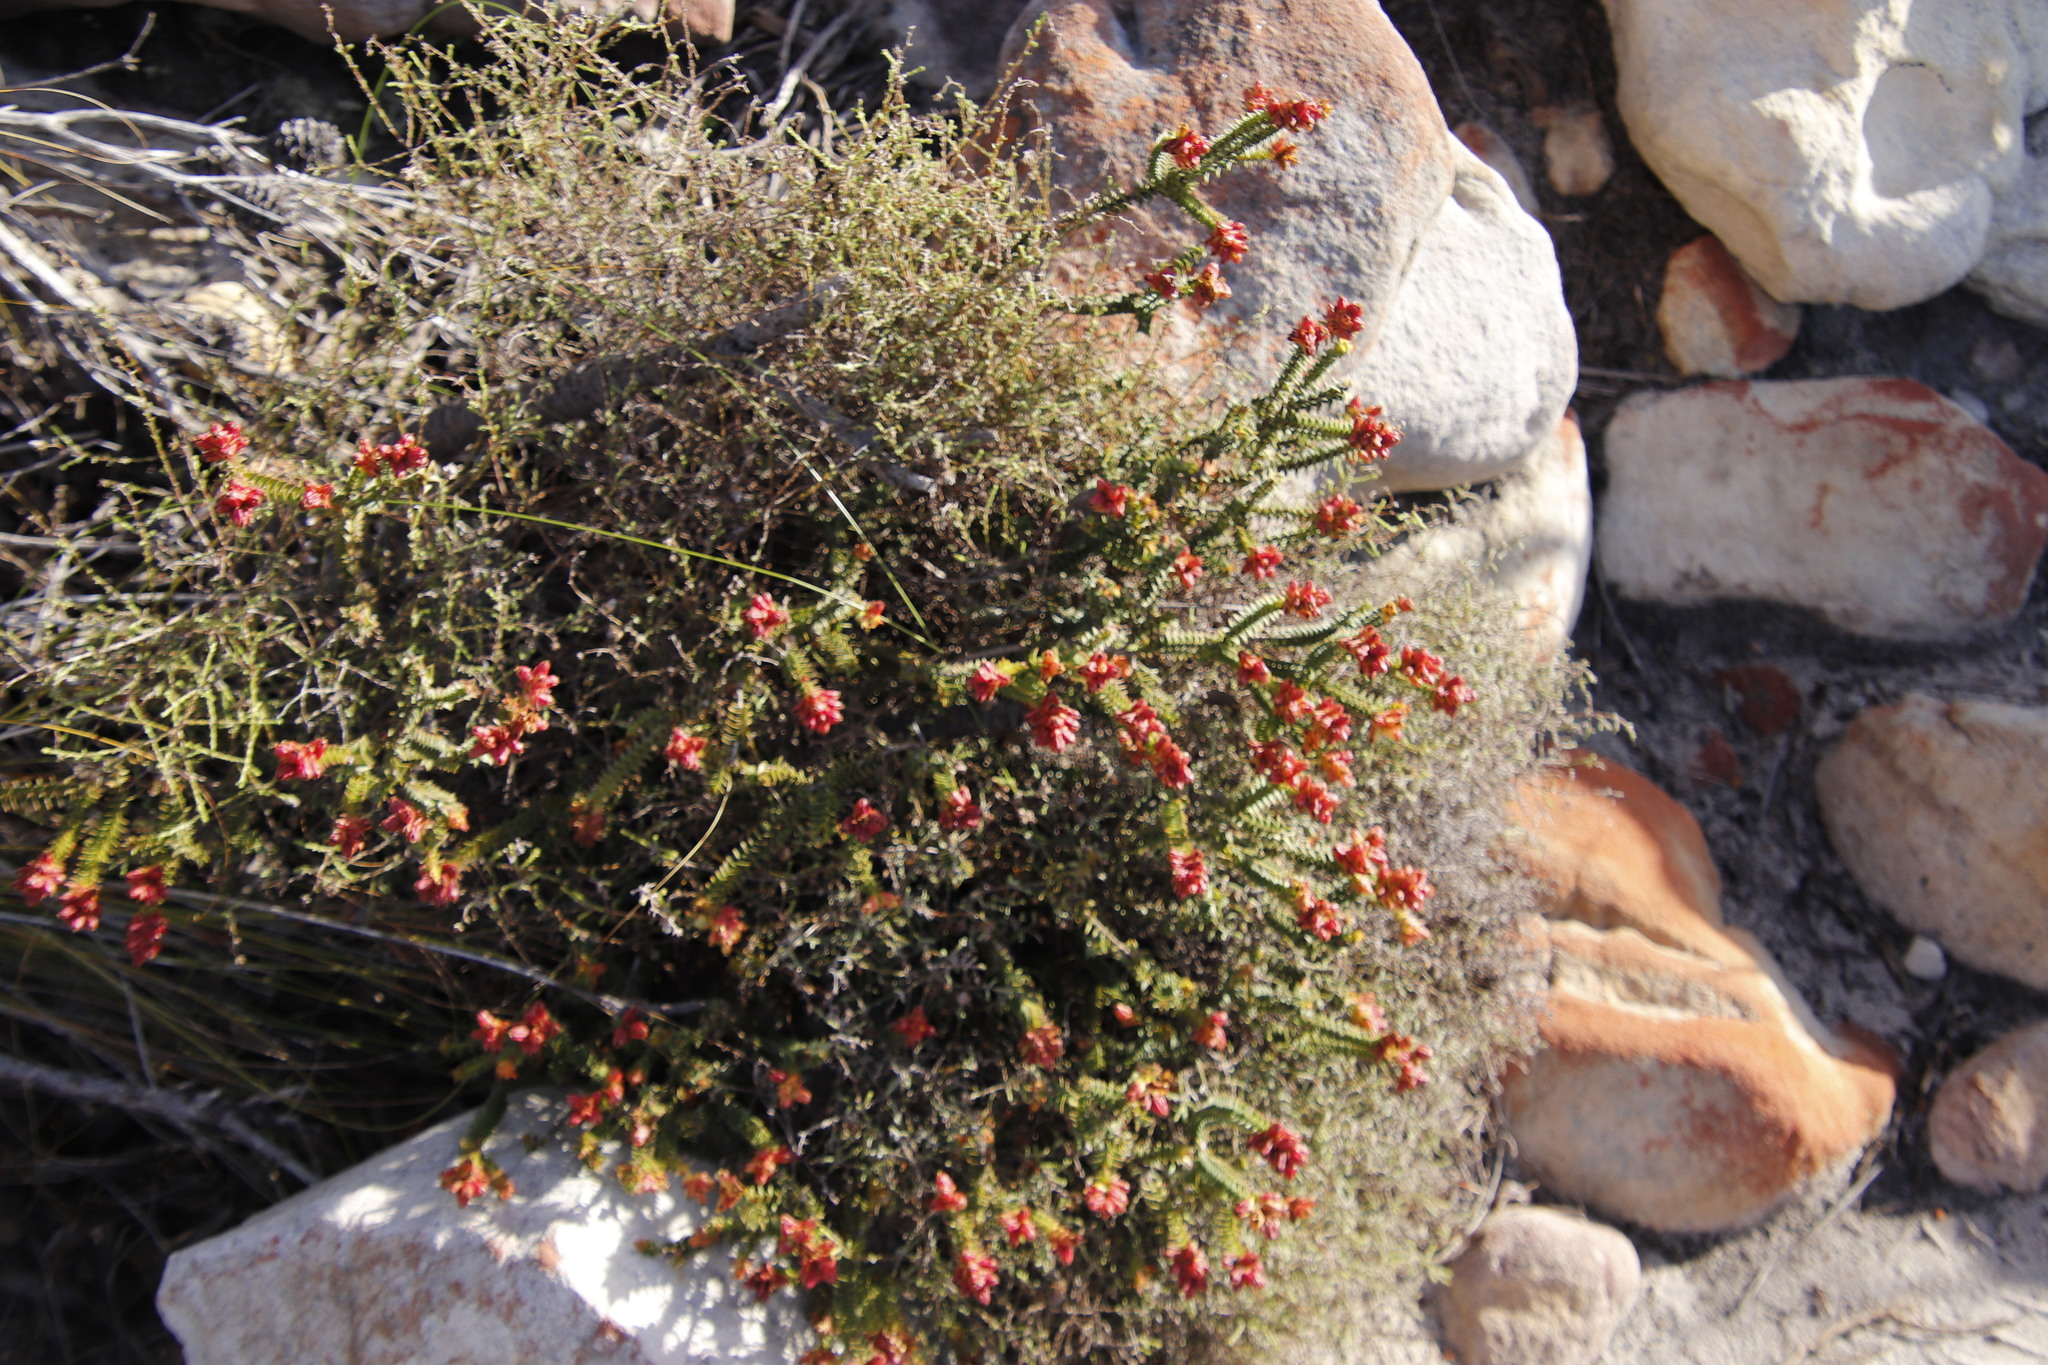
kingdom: Plantae
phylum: Tracheophyta
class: Magnoliopsida
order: Myrtales
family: Penaeaceae
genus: Penaea
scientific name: Penaea mucronata
